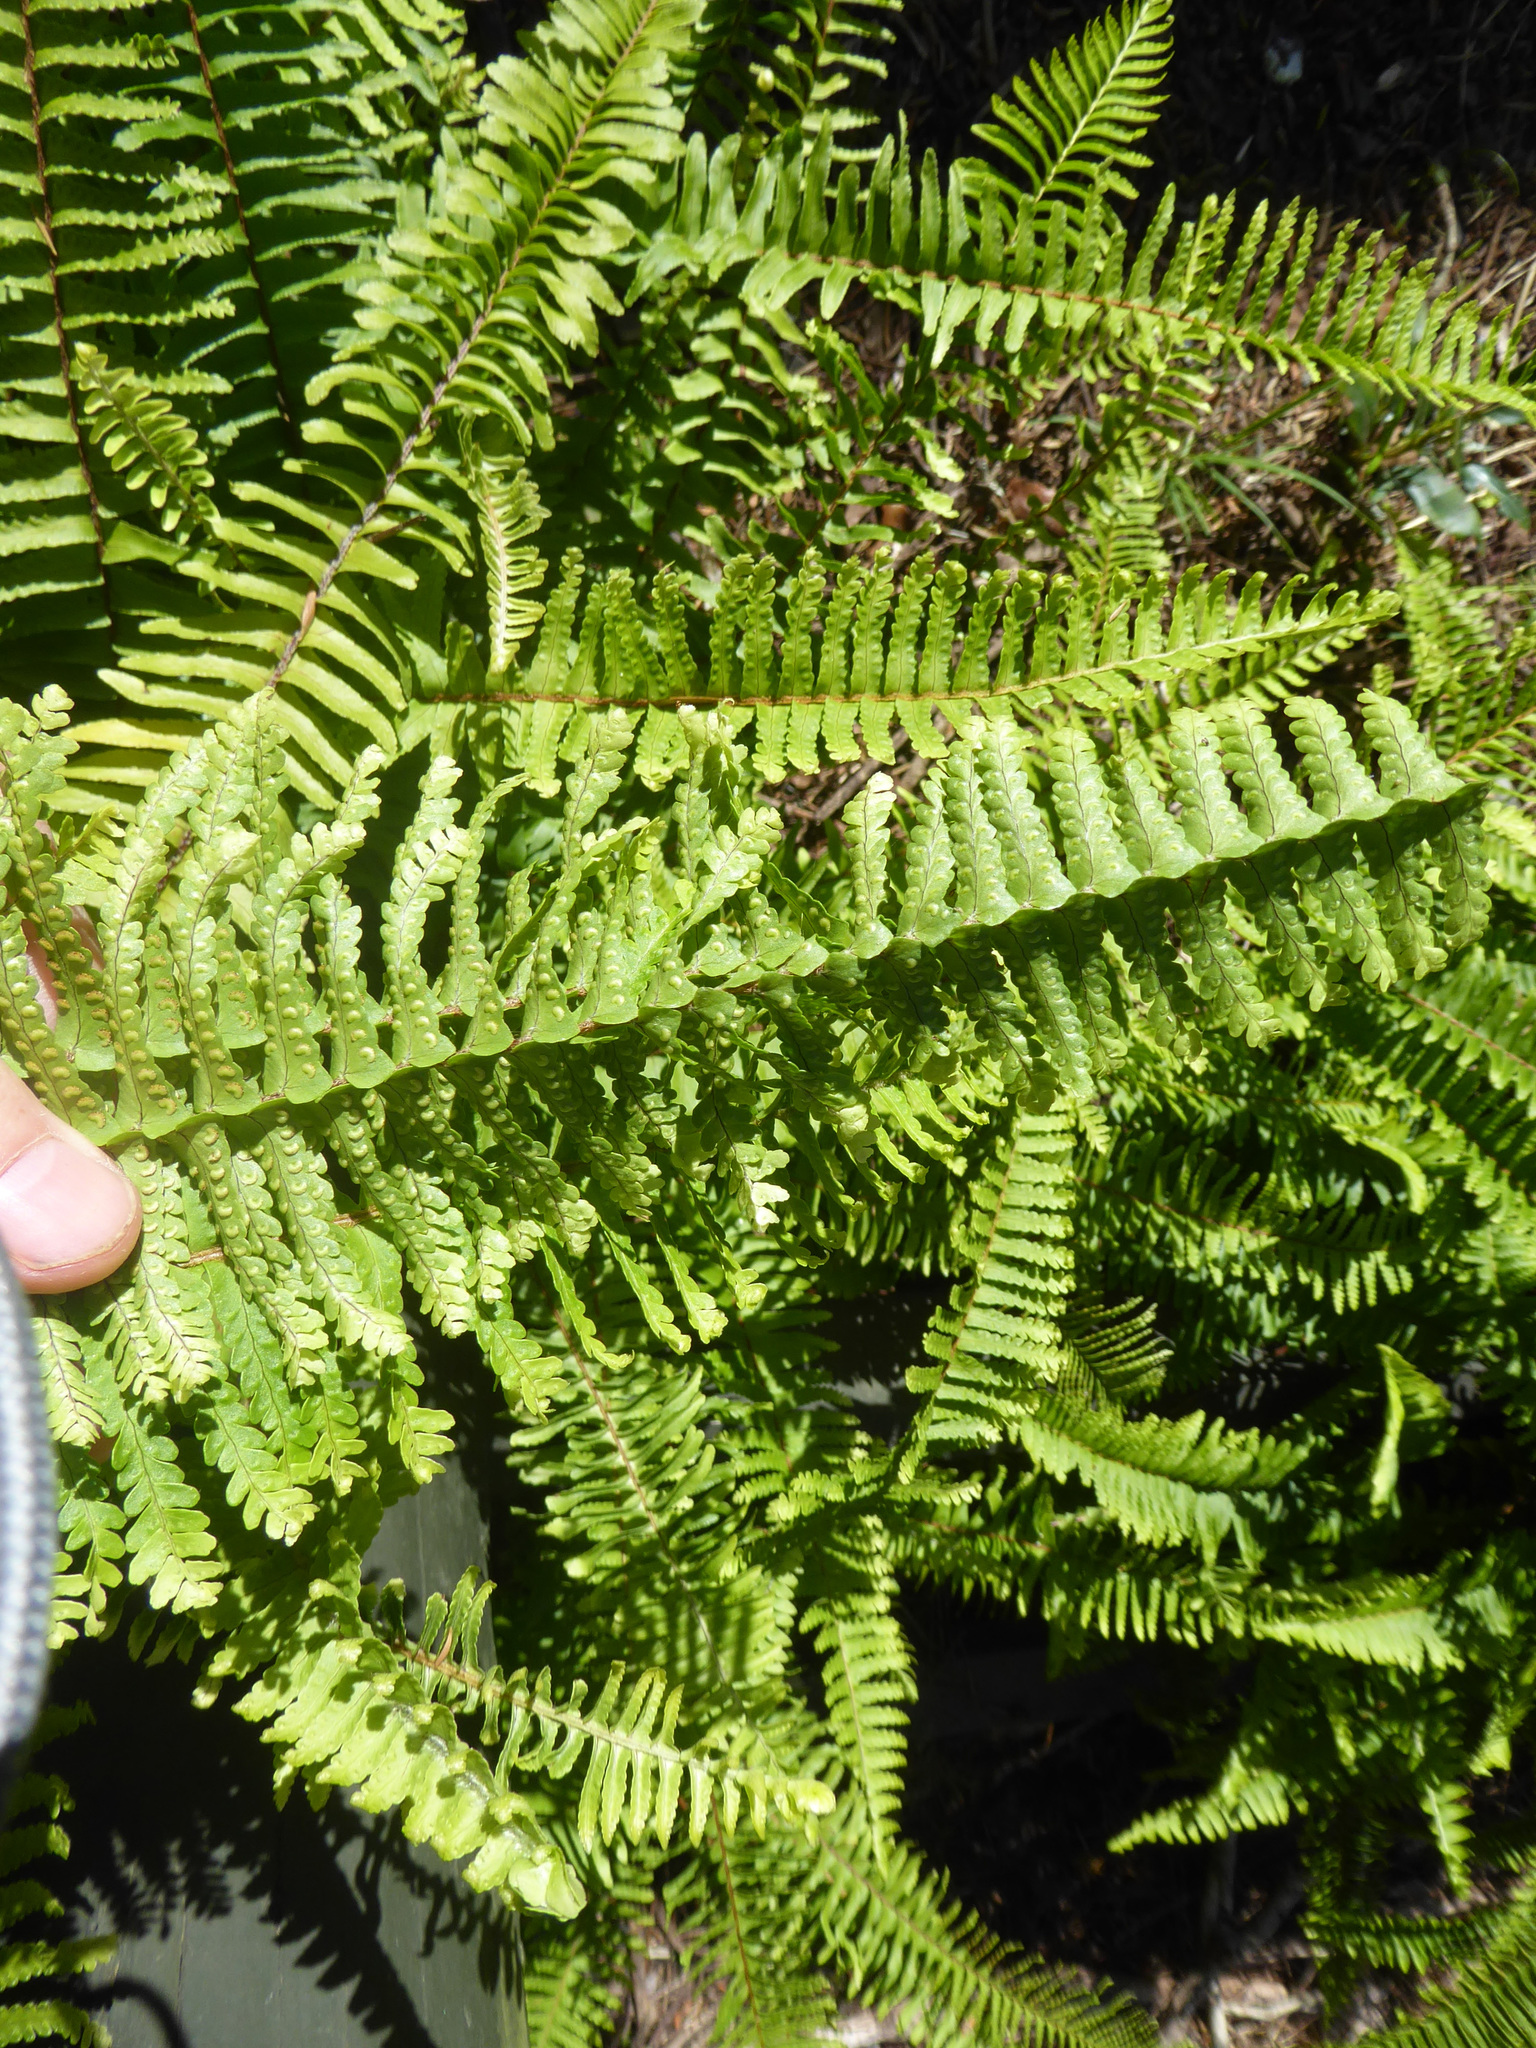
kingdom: Plantae
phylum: Tracheophyta
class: Polypodiopsida
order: Polypodiales
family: Nephrolepidaceae
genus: Nephrolepis
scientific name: Nephrolepis cordifolia
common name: Narrow swordfern
